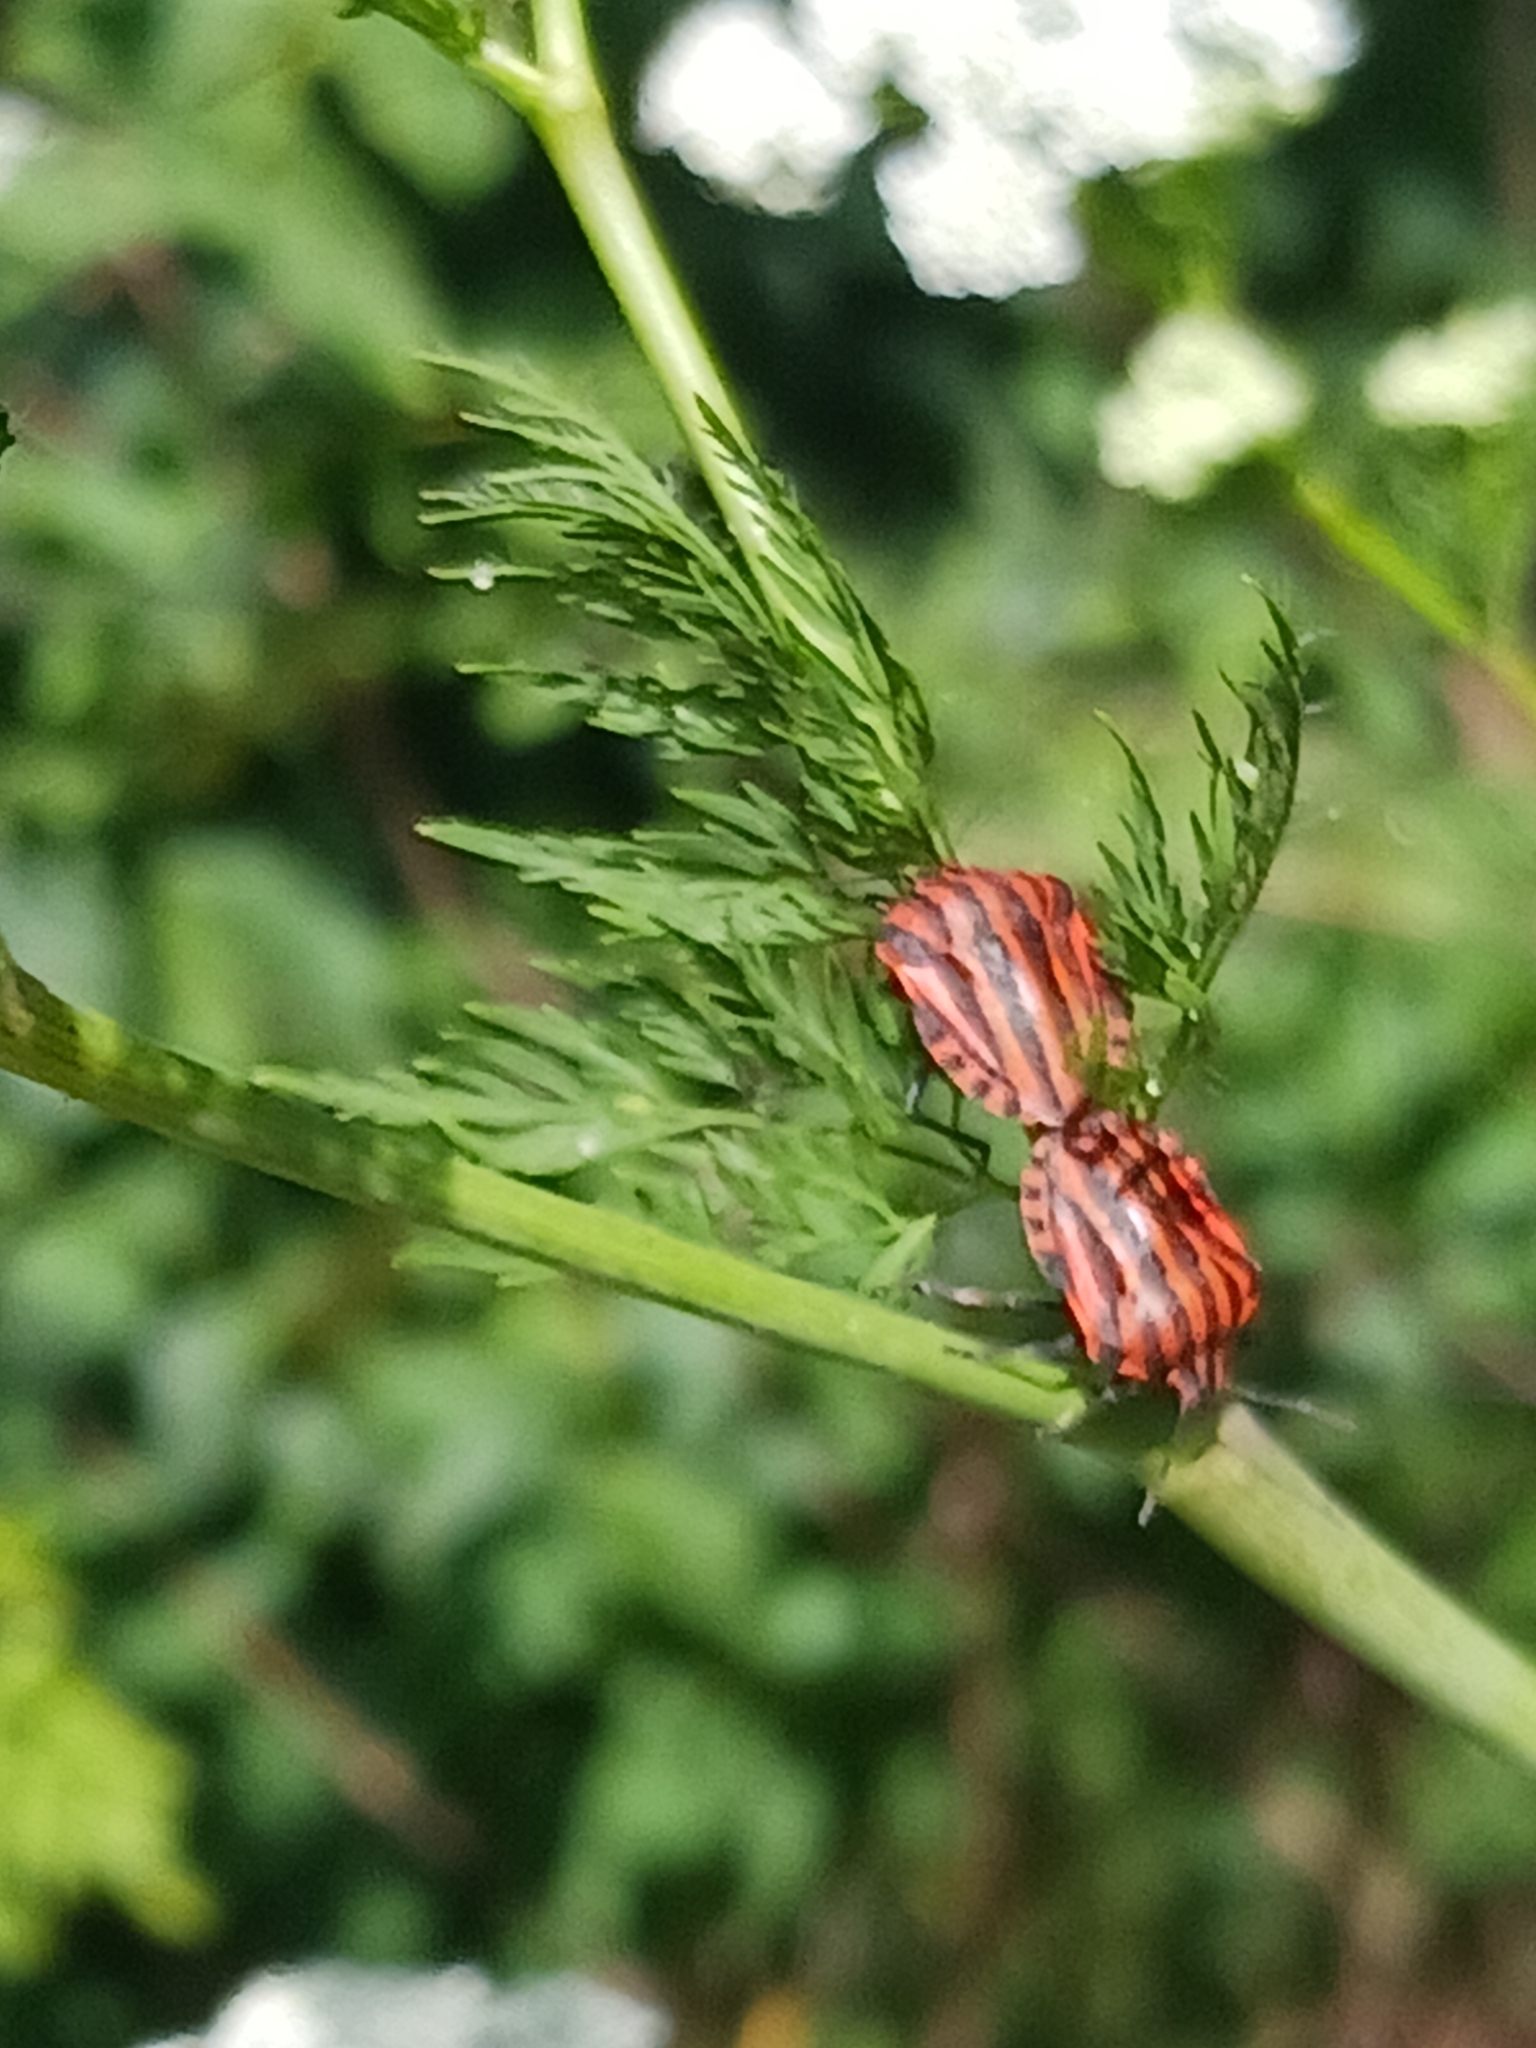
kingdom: Animalia
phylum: Arthropoda
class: Insecta
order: Hemiptera
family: Pentatomidae
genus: Graphosoma
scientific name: Graphosoma italicum
